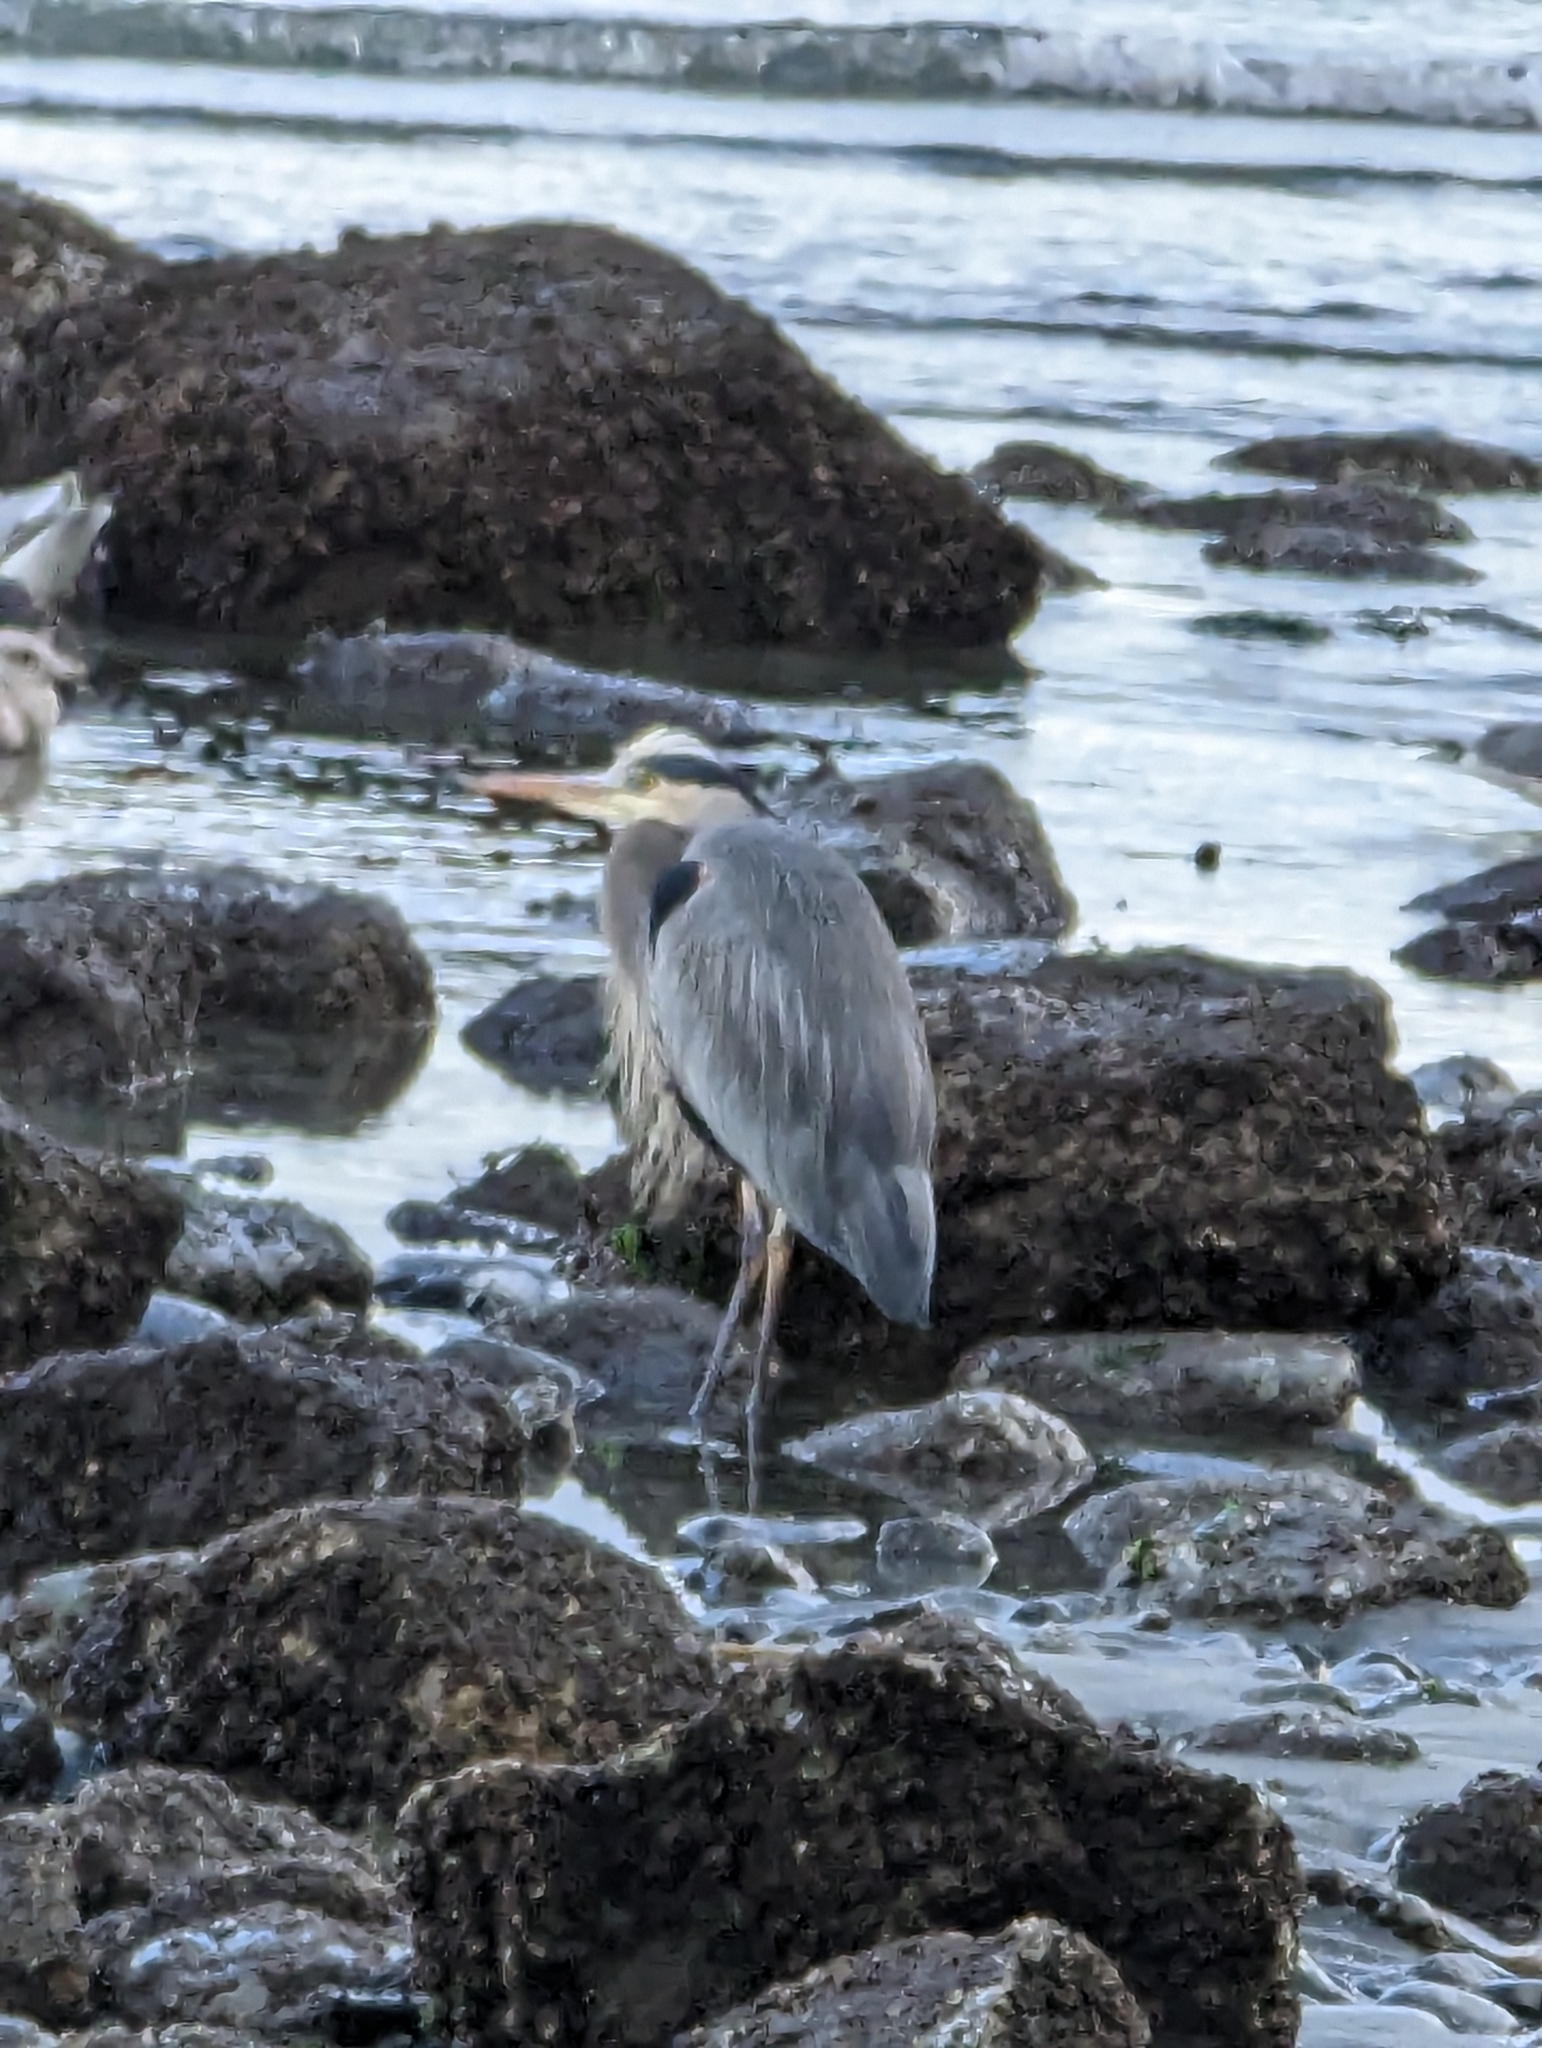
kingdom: Animalia
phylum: Chordata
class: Aves
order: Pelecaniformes
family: Ardeidae
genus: Ardea
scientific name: Ardea herodias
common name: Great blue heron
